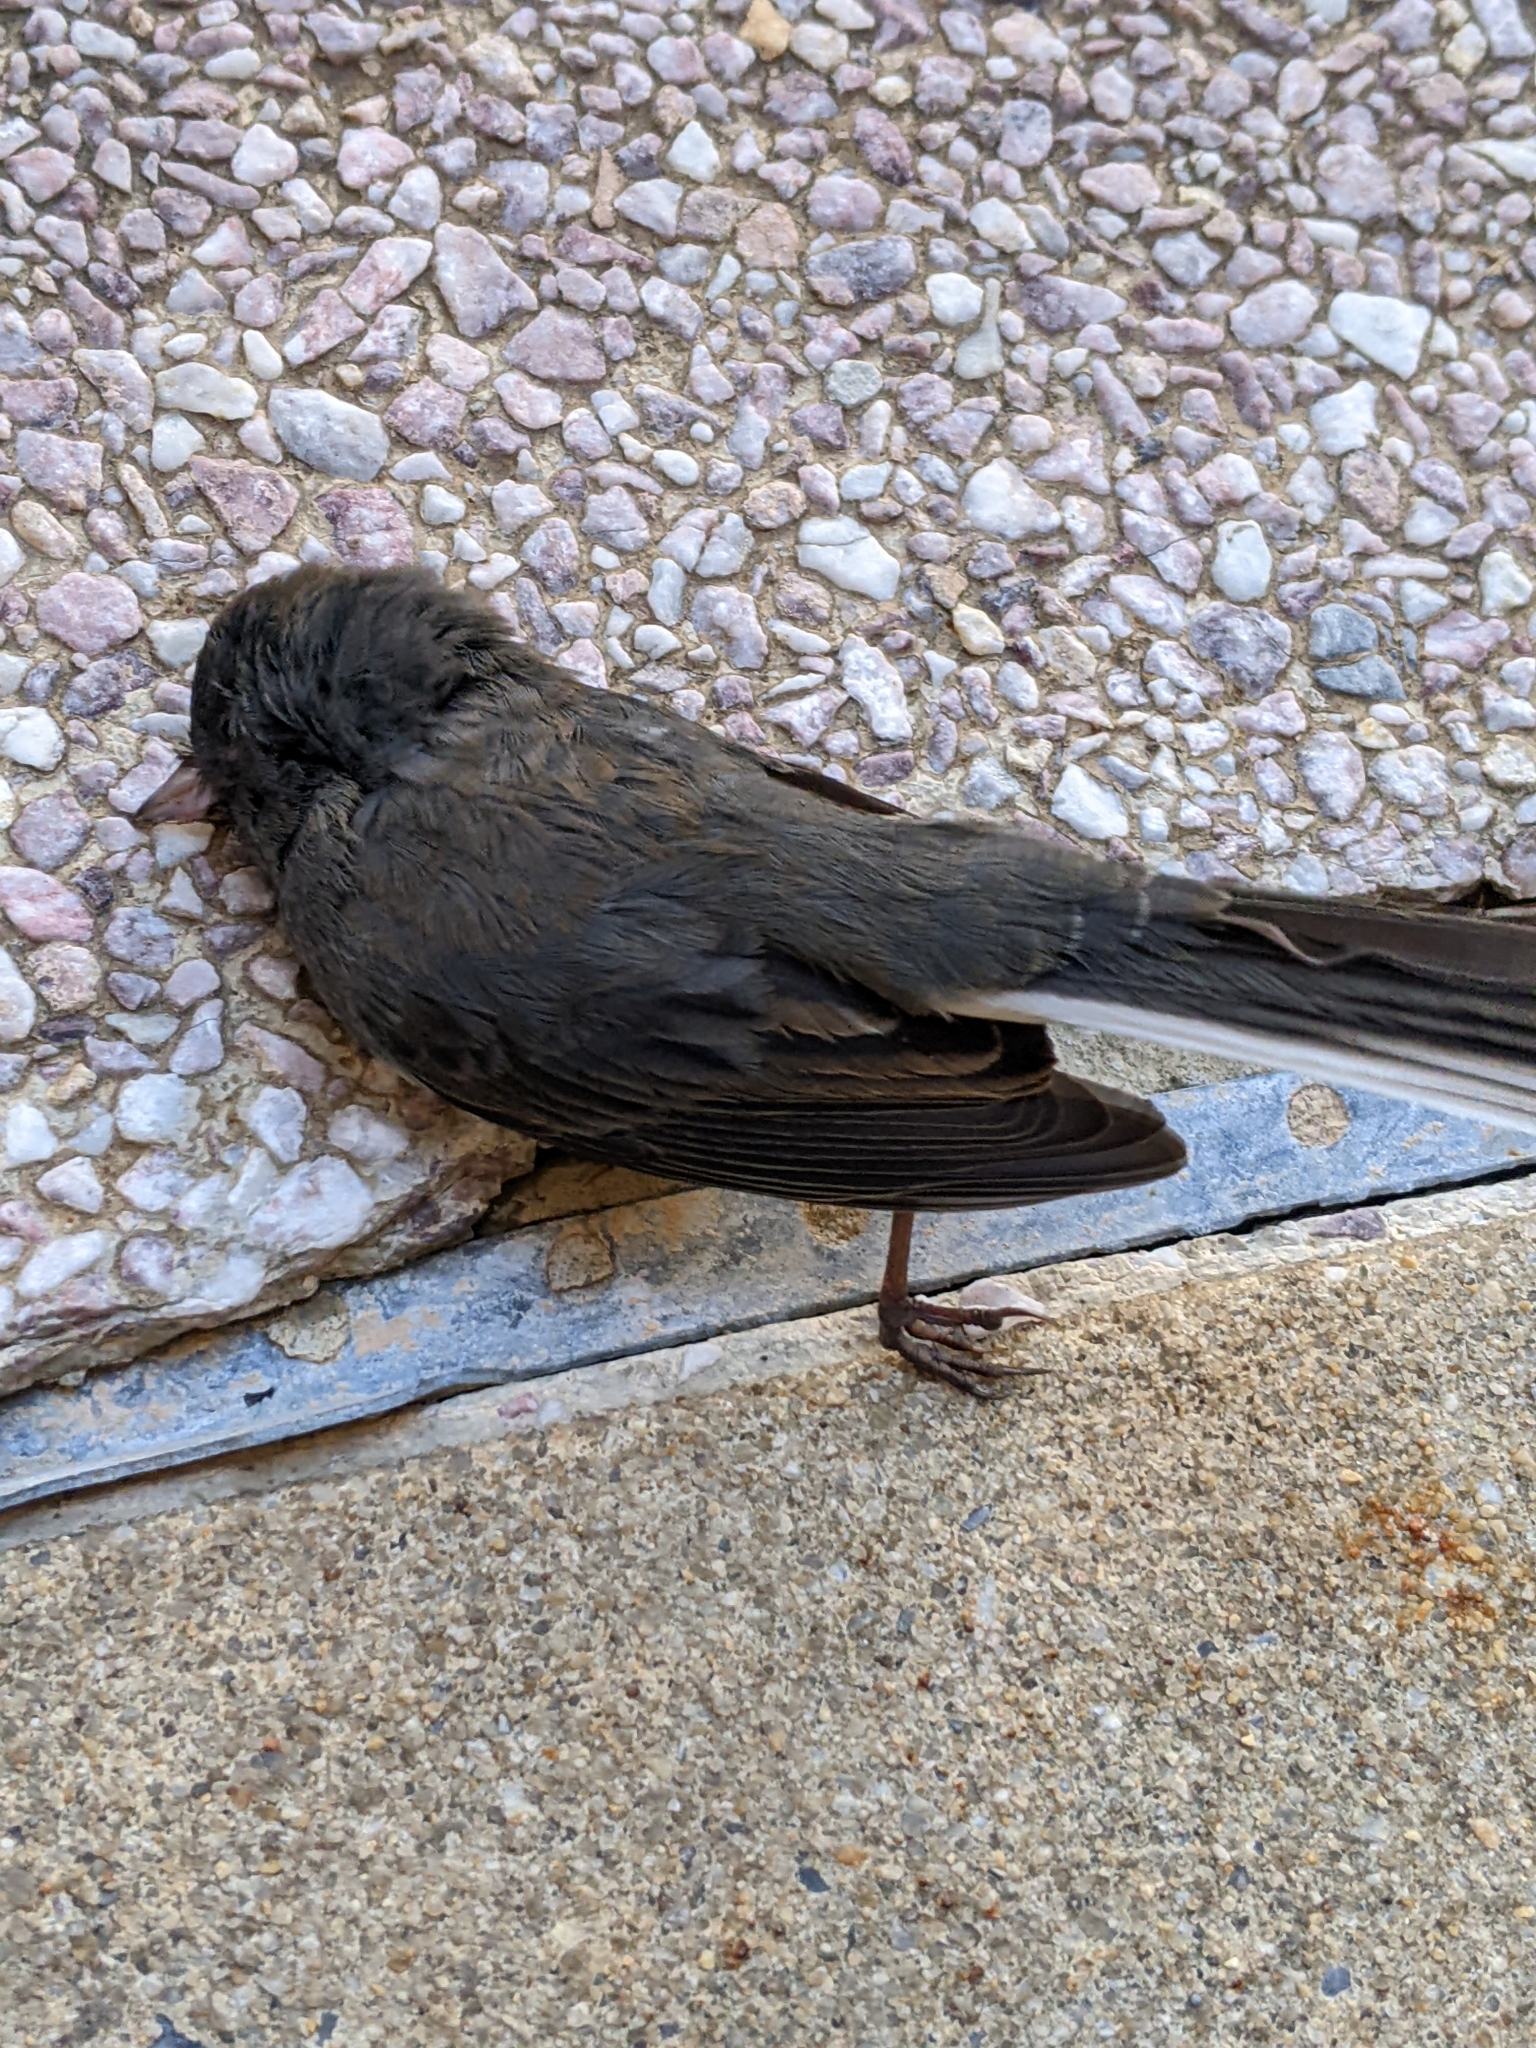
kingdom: Animalia
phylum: Chordata
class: Aves
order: Passeriformes
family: Passerellidae
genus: Junco
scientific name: Junco hyemalis
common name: Dark-eyed junco
